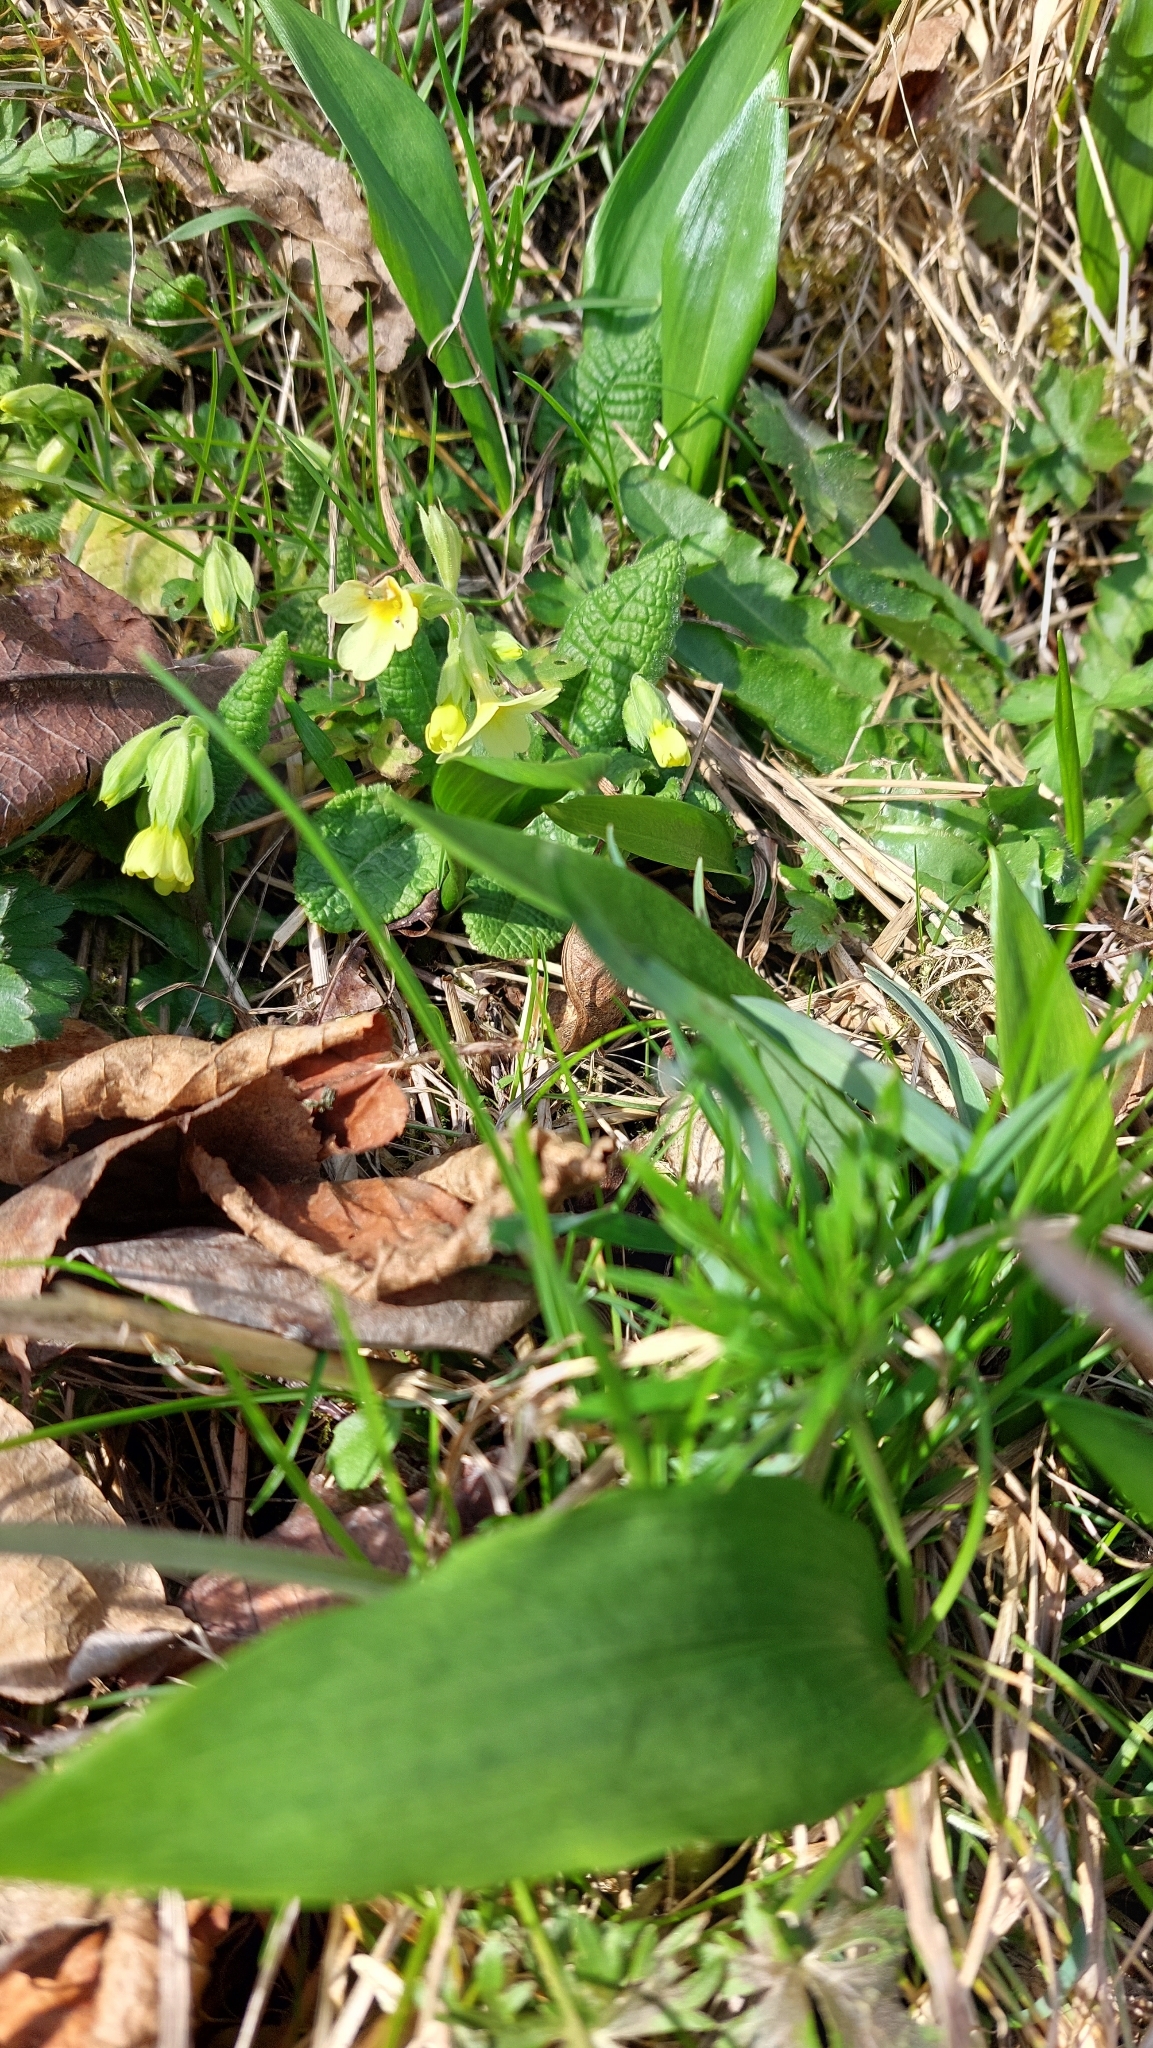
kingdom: Plantae
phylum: Tracheophyta
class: Magnoliopsida
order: Ericales
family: Primulaceae
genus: Primula
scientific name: Primula elatior
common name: Oxlip
